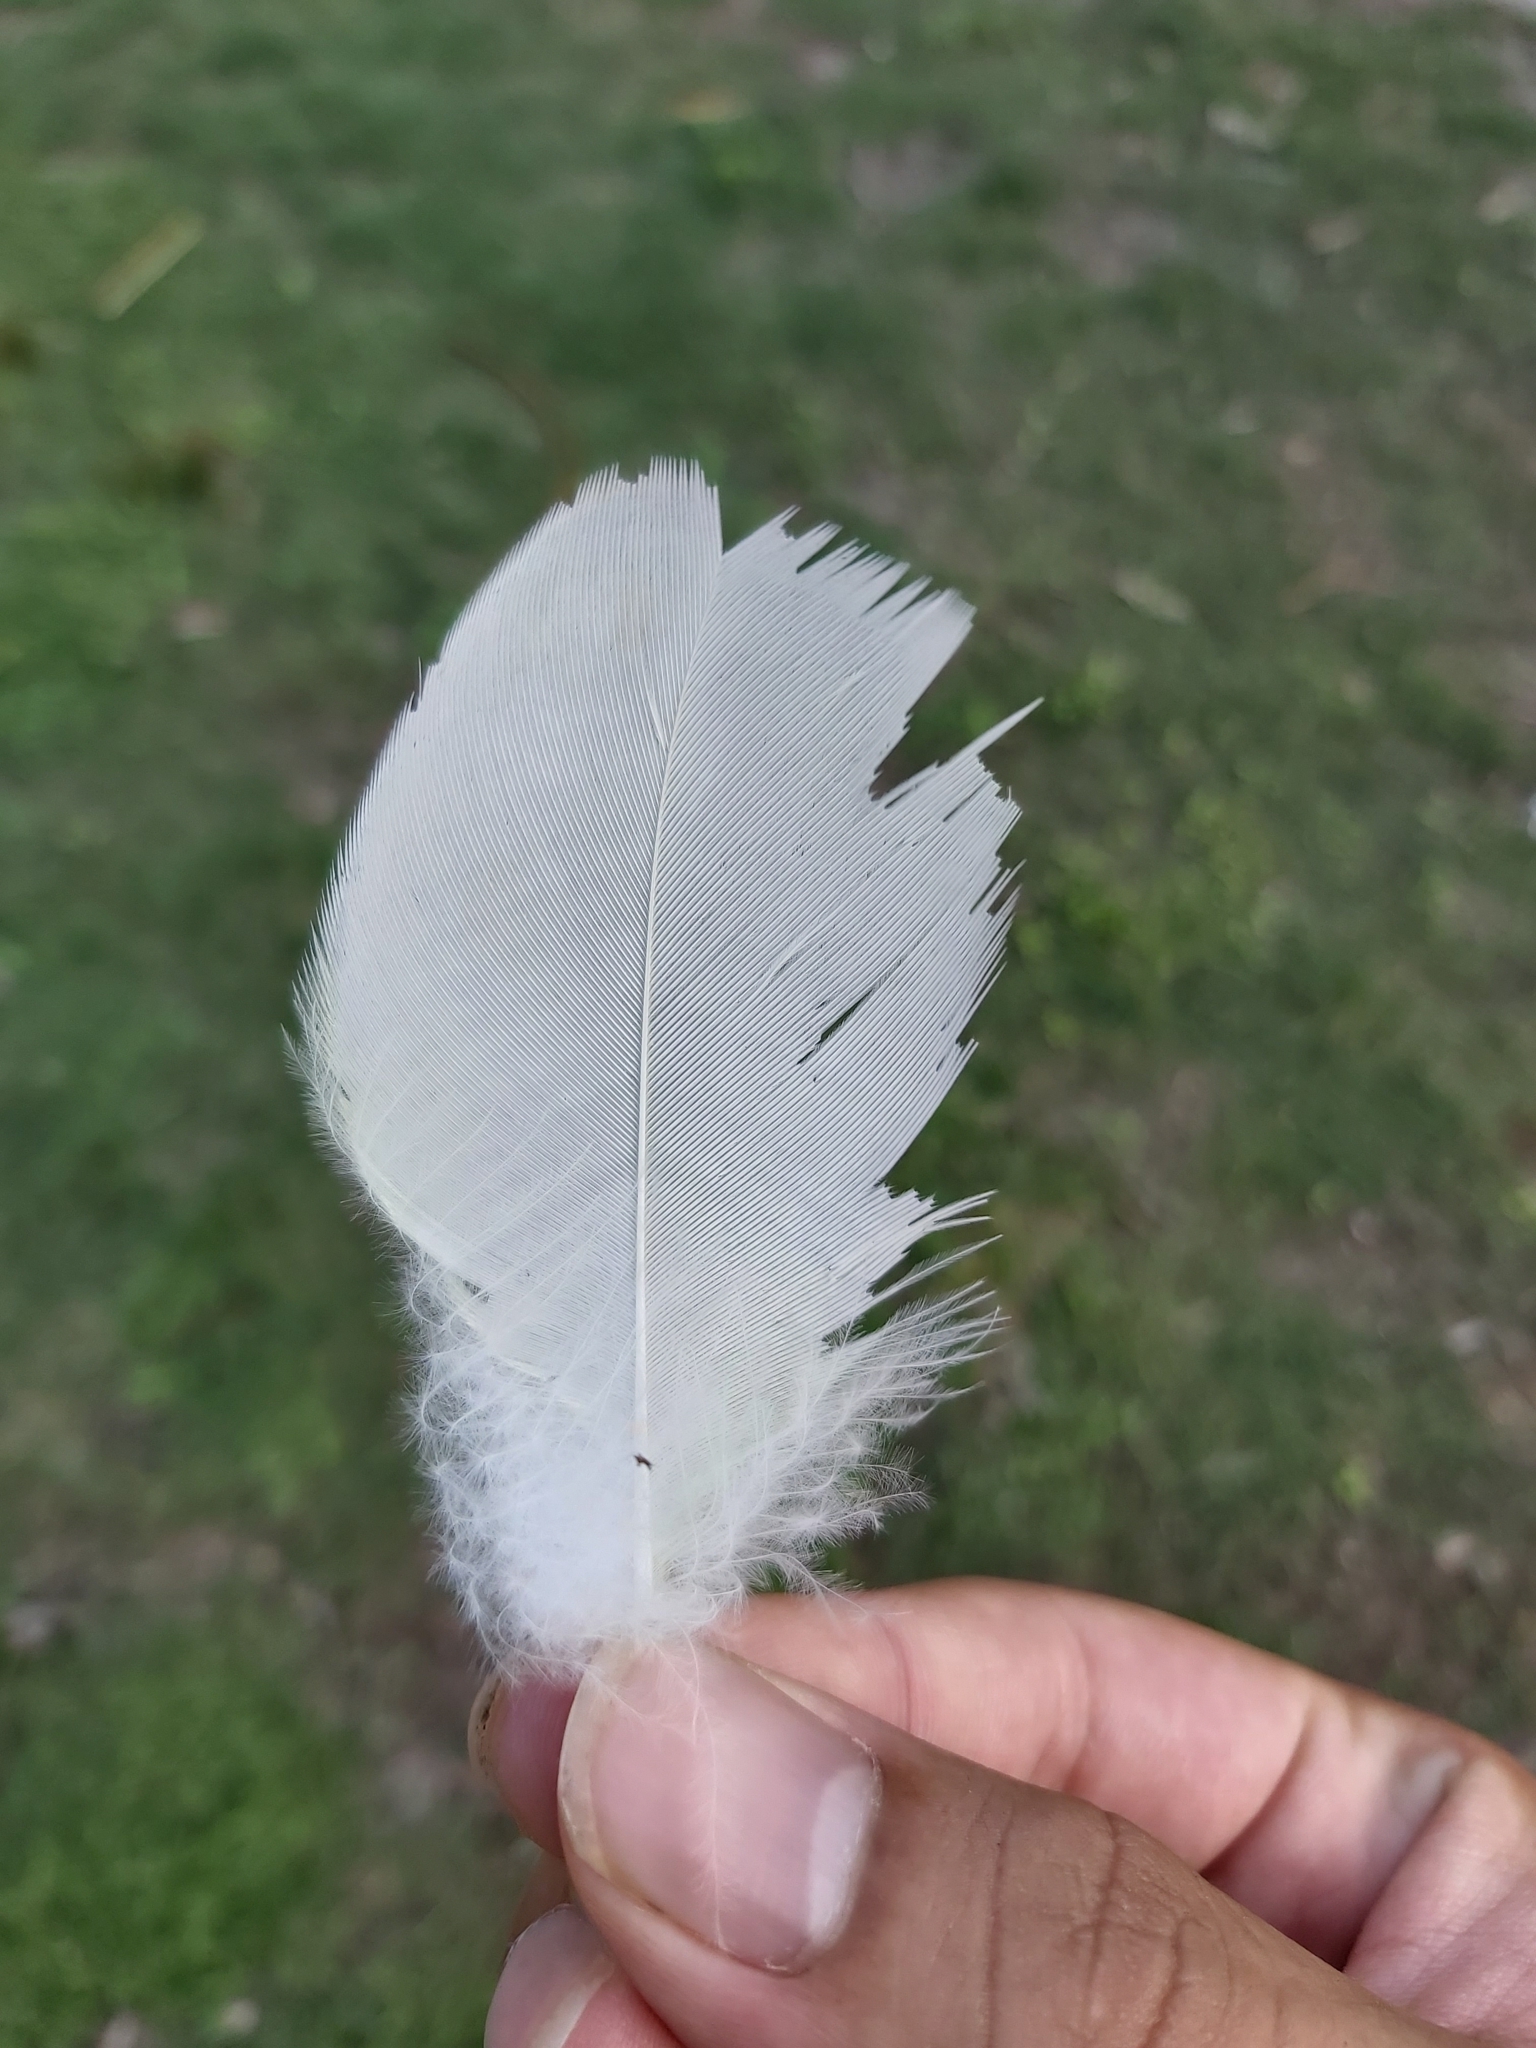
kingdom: Animalia
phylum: Chordata
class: Aves
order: Psittaciformes
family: Psittacidae
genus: Cacatua
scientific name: Cacatua galerita
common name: Sulphur-crested cockatoo
